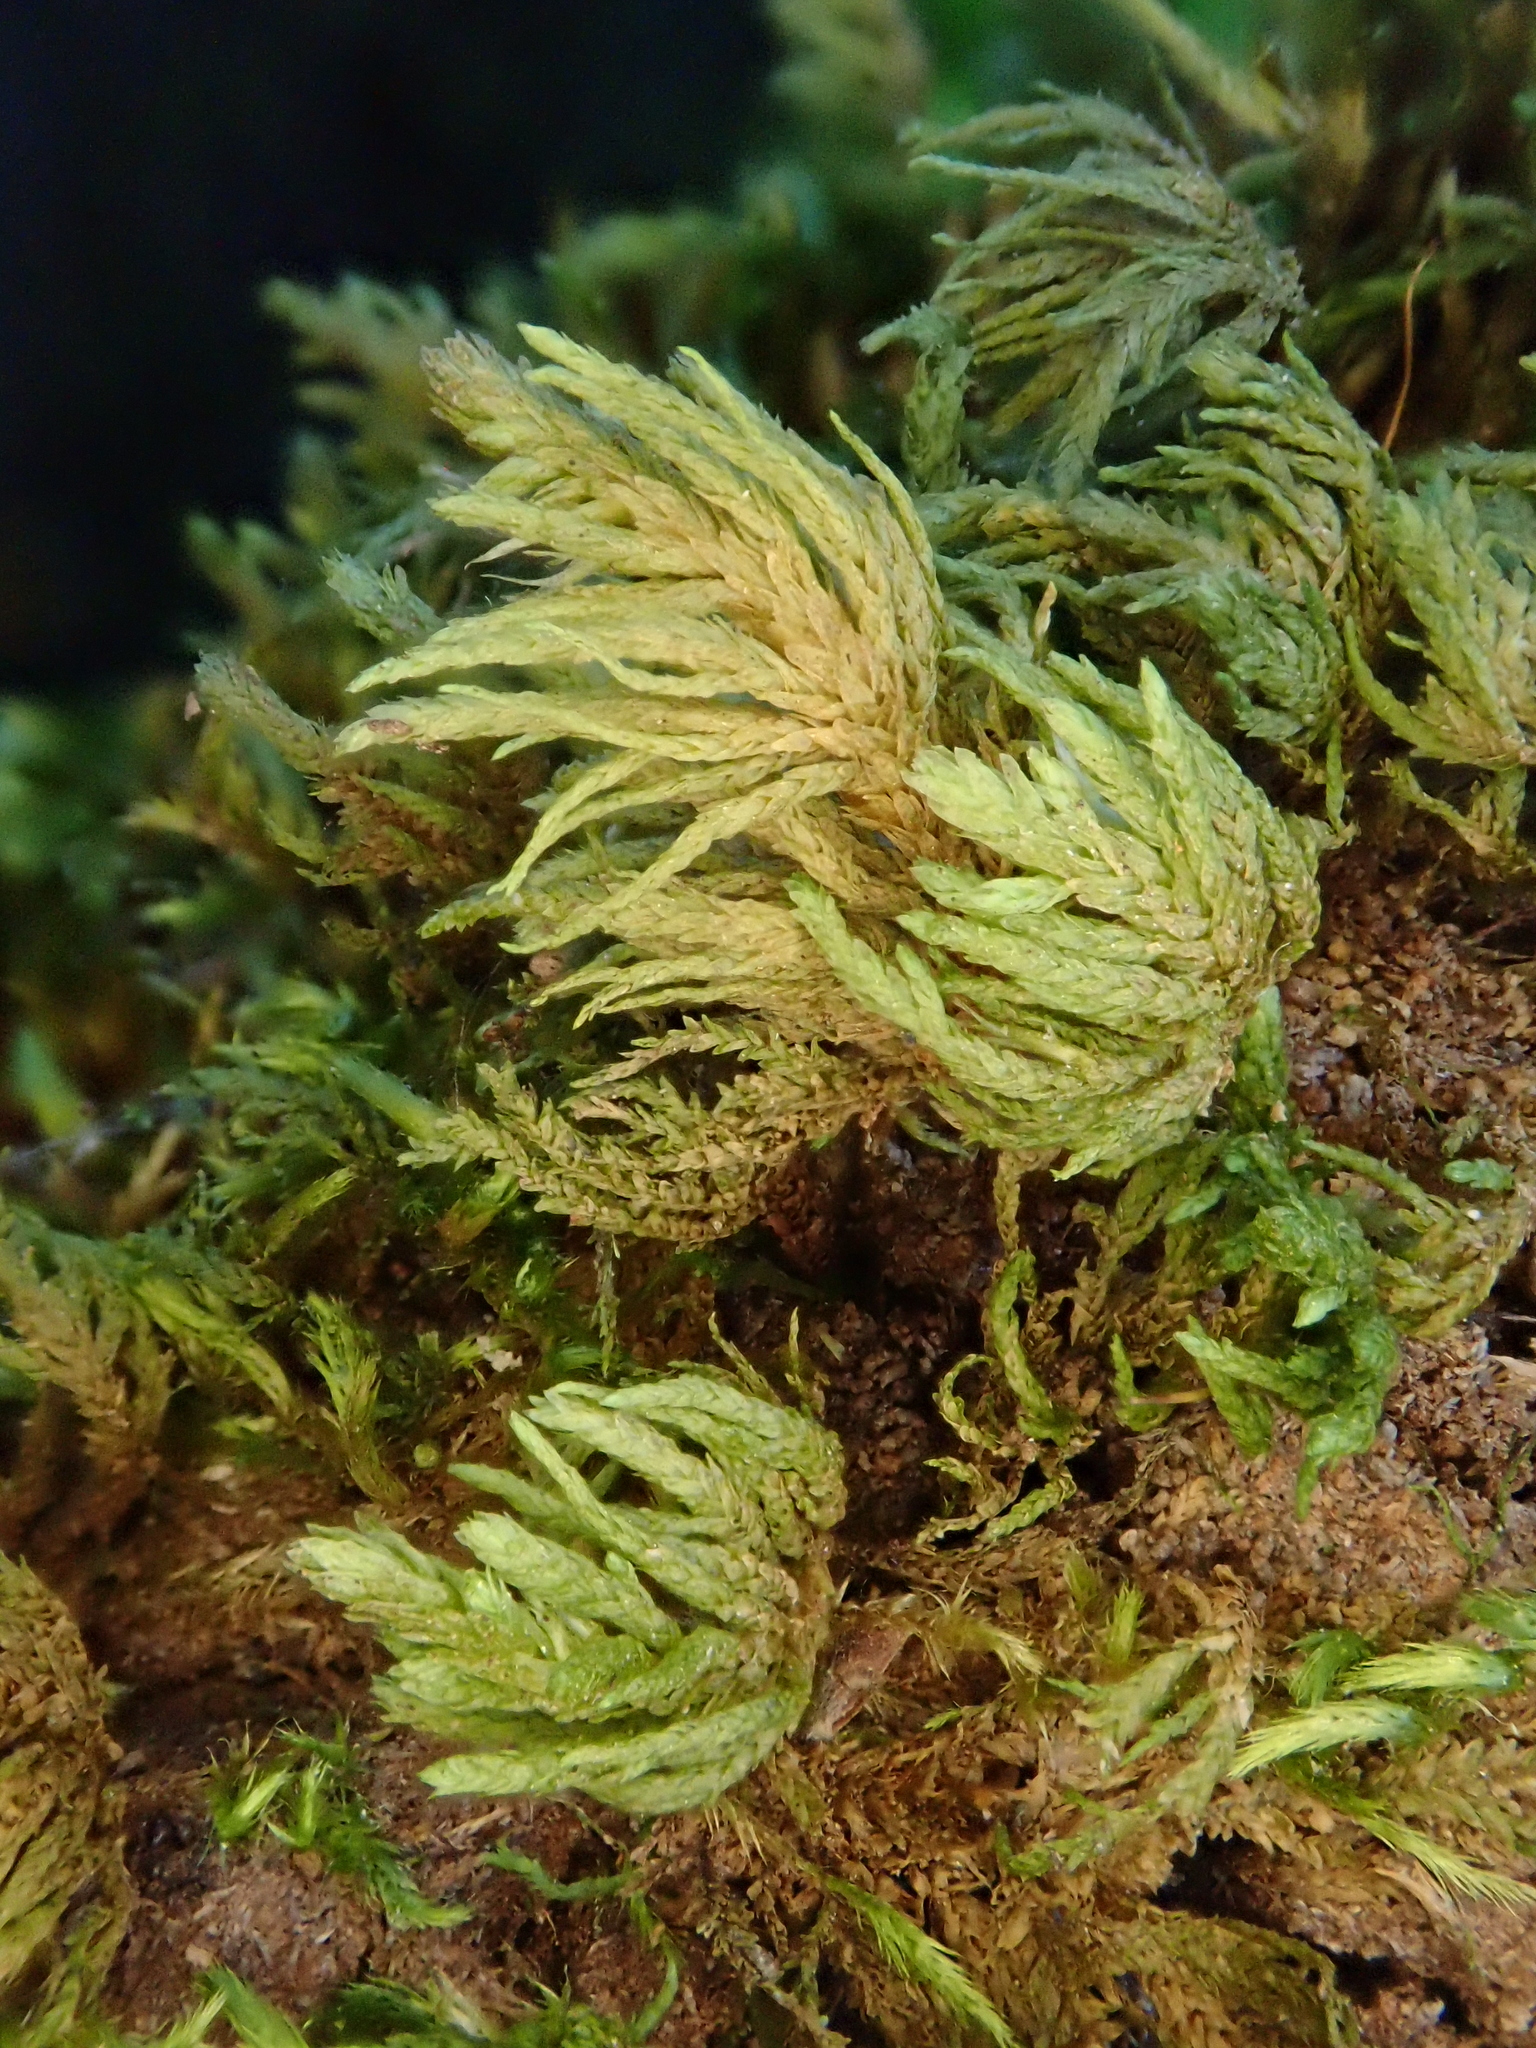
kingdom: Plantae
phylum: Bryophyta
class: Bryopsida
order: Hypnales
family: Neckeraceae
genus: Leptodon
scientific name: Leptodon longisetus
